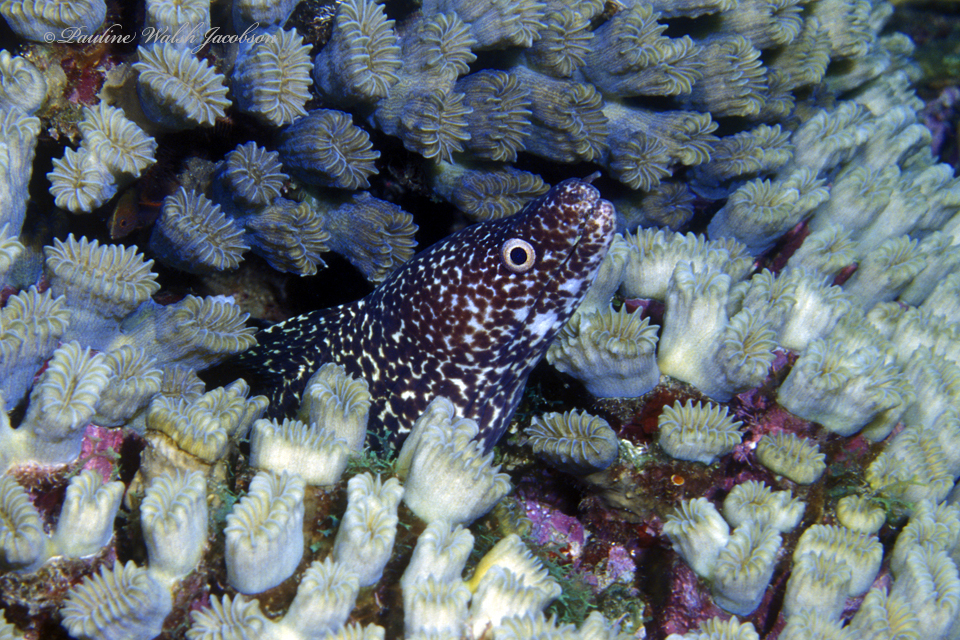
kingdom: Animalia
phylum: Chordata
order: Anguilliformes
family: Muraenidae
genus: Gymnothorax
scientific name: Gymnothorax moringa
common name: Spotted moray
